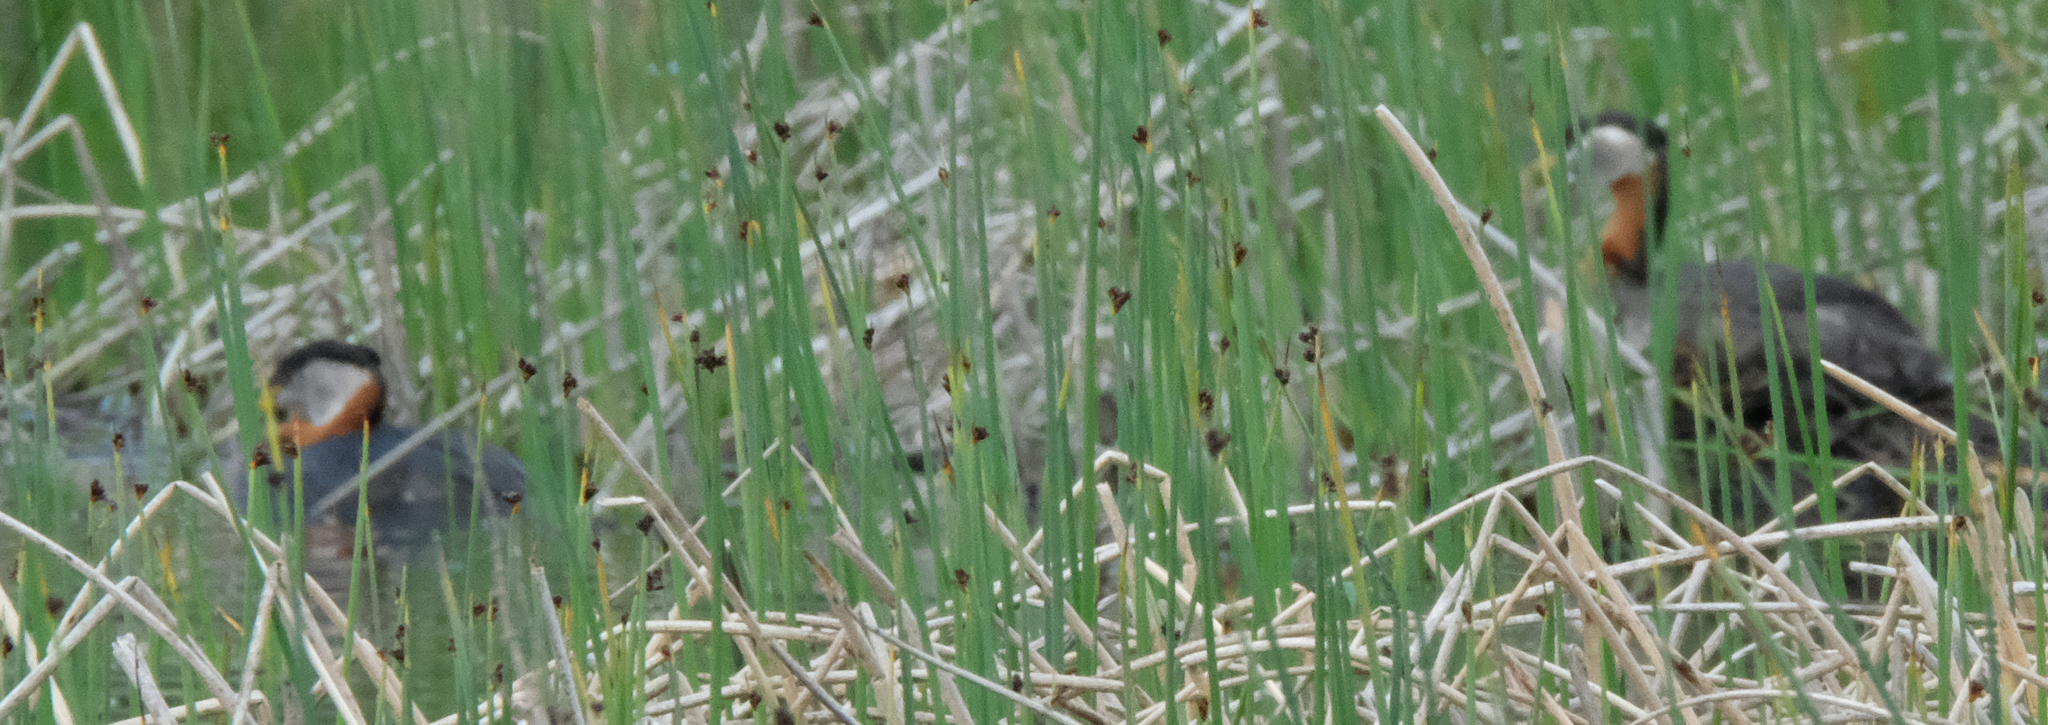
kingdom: Animalia
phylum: Chordata
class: Aves
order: Podicipediformes
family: Podicipedidae
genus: Podiceps
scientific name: Podiceps grisegena
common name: Red-necked grebe
